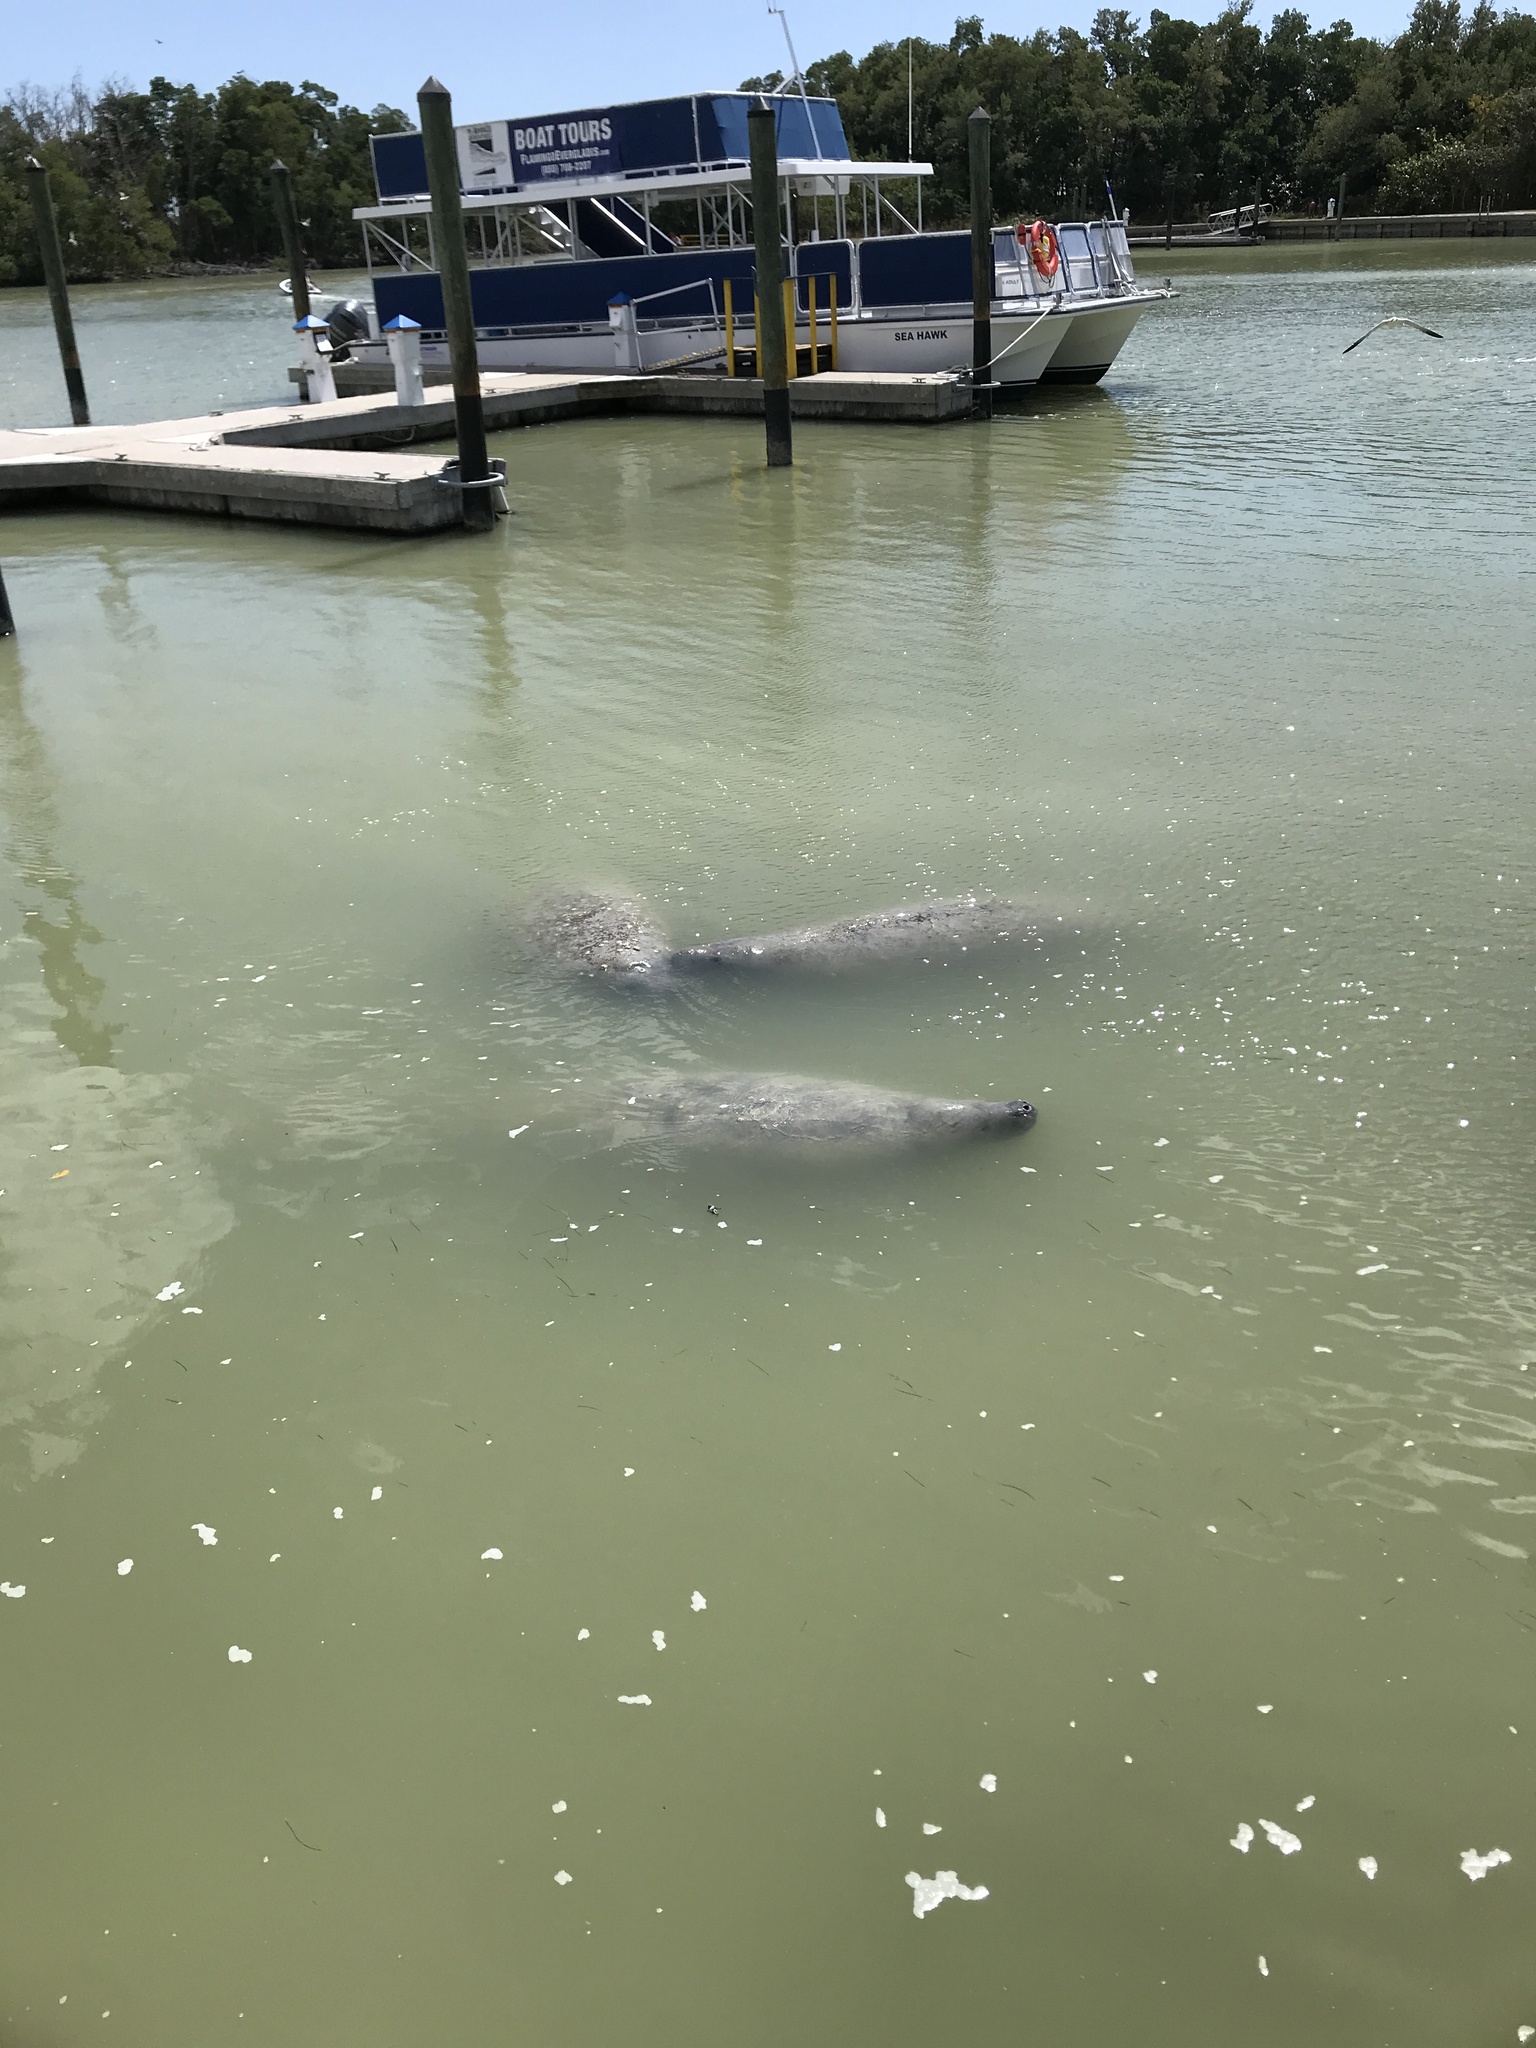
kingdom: Animalia
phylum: Chordata
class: Mammalia
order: Sirenia
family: Trichechidae
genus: Trichechus
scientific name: Trichechus manatus
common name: West indian manatee
